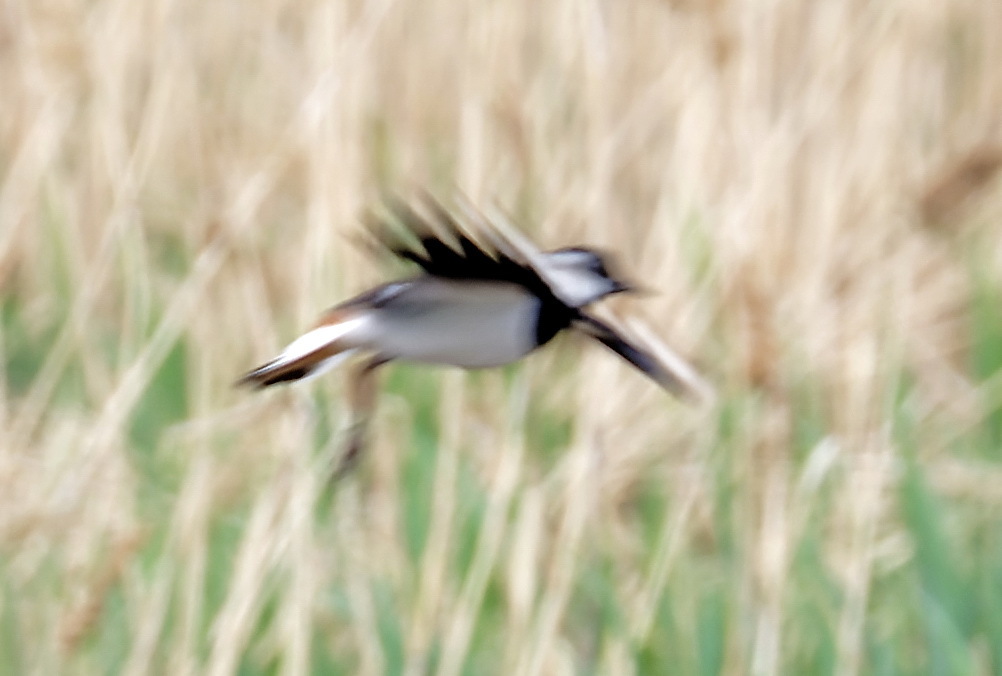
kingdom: Animalia
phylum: Chordata
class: Aves
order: Charadriiformes
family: Charadriidae
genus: Vanellus
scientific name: Vanellus vanellus
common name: Northern lapwing
